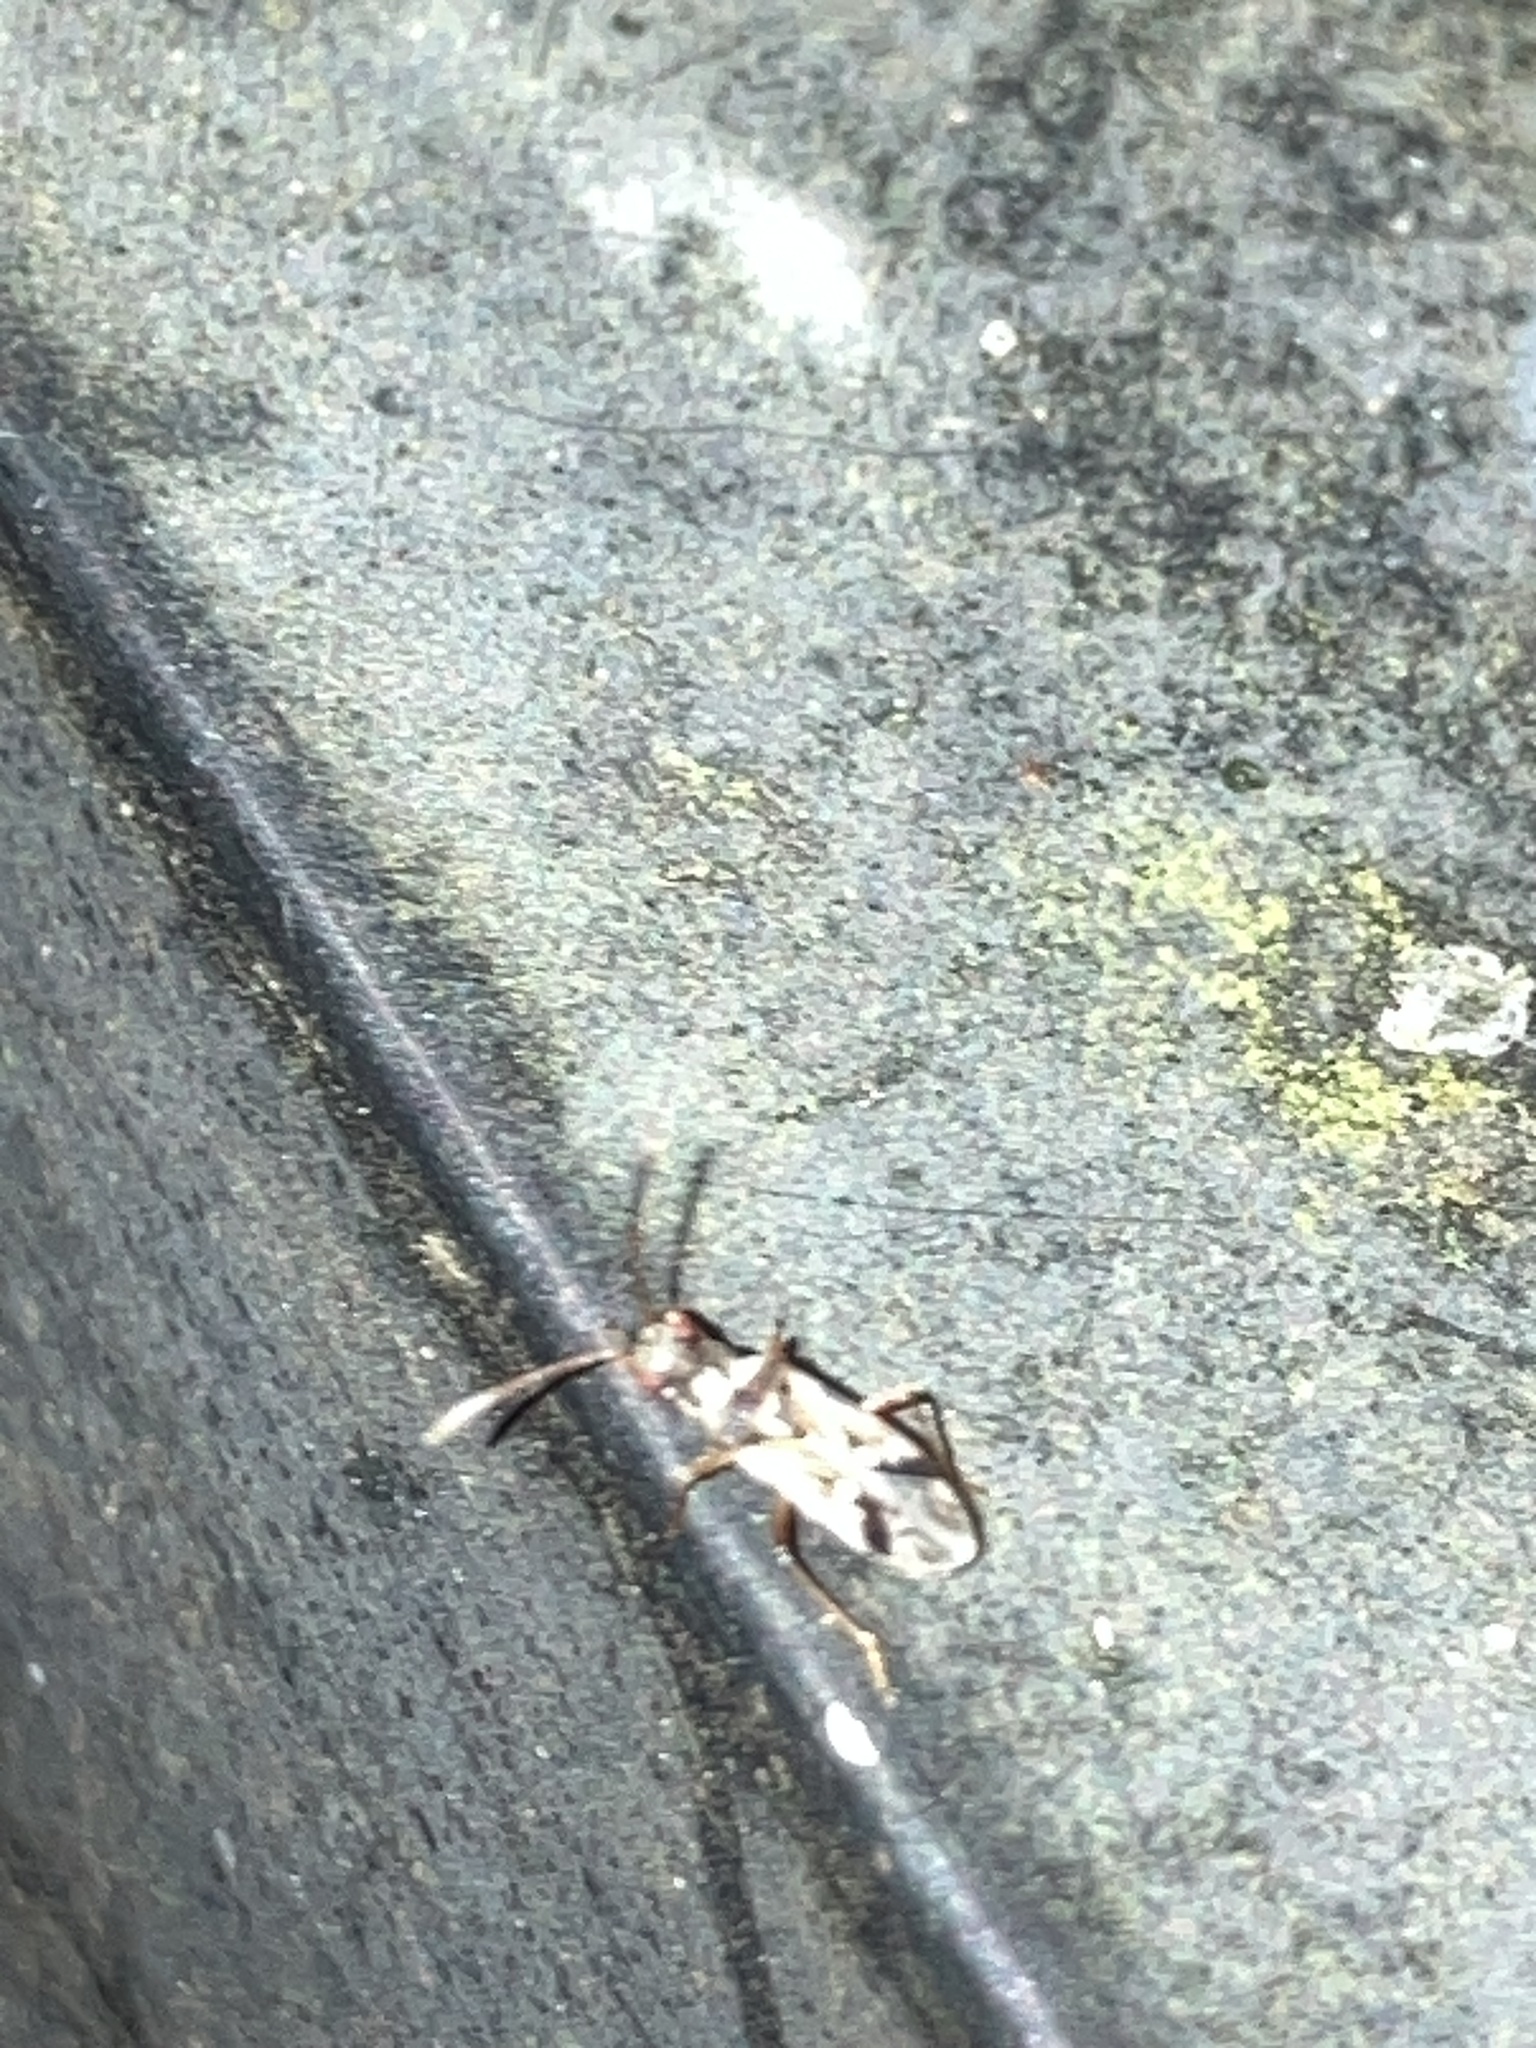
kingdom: Animalia
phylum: Arthropoda
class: Insecta
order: Hemiptera
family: Rhyparochromidae
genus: Pseudopachybrachius
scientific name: Pseudopachybrachius vinctus
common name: Dirt-colored seed bug
